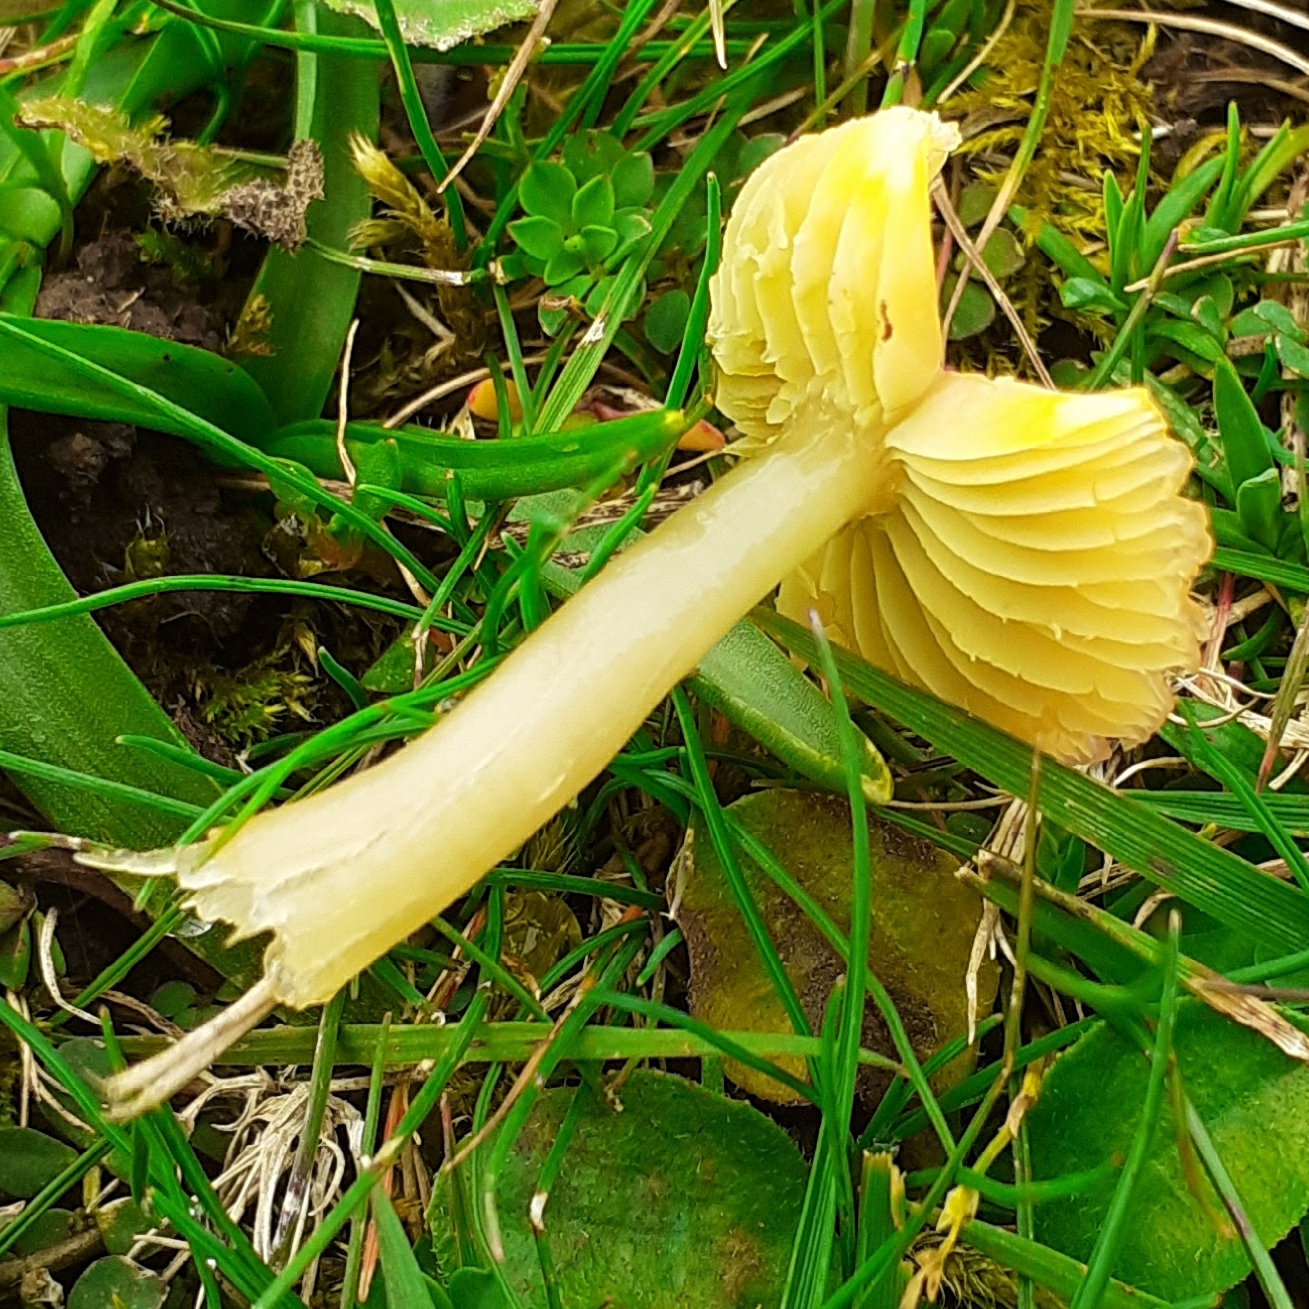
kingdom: Fungi
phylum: Basidiomycota
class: Agaricomycetes
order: Agaricales
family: Hygrophoraceae
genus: Gliophorus
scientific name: Gliophorus psittacinus
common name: Parrot wax-cap
